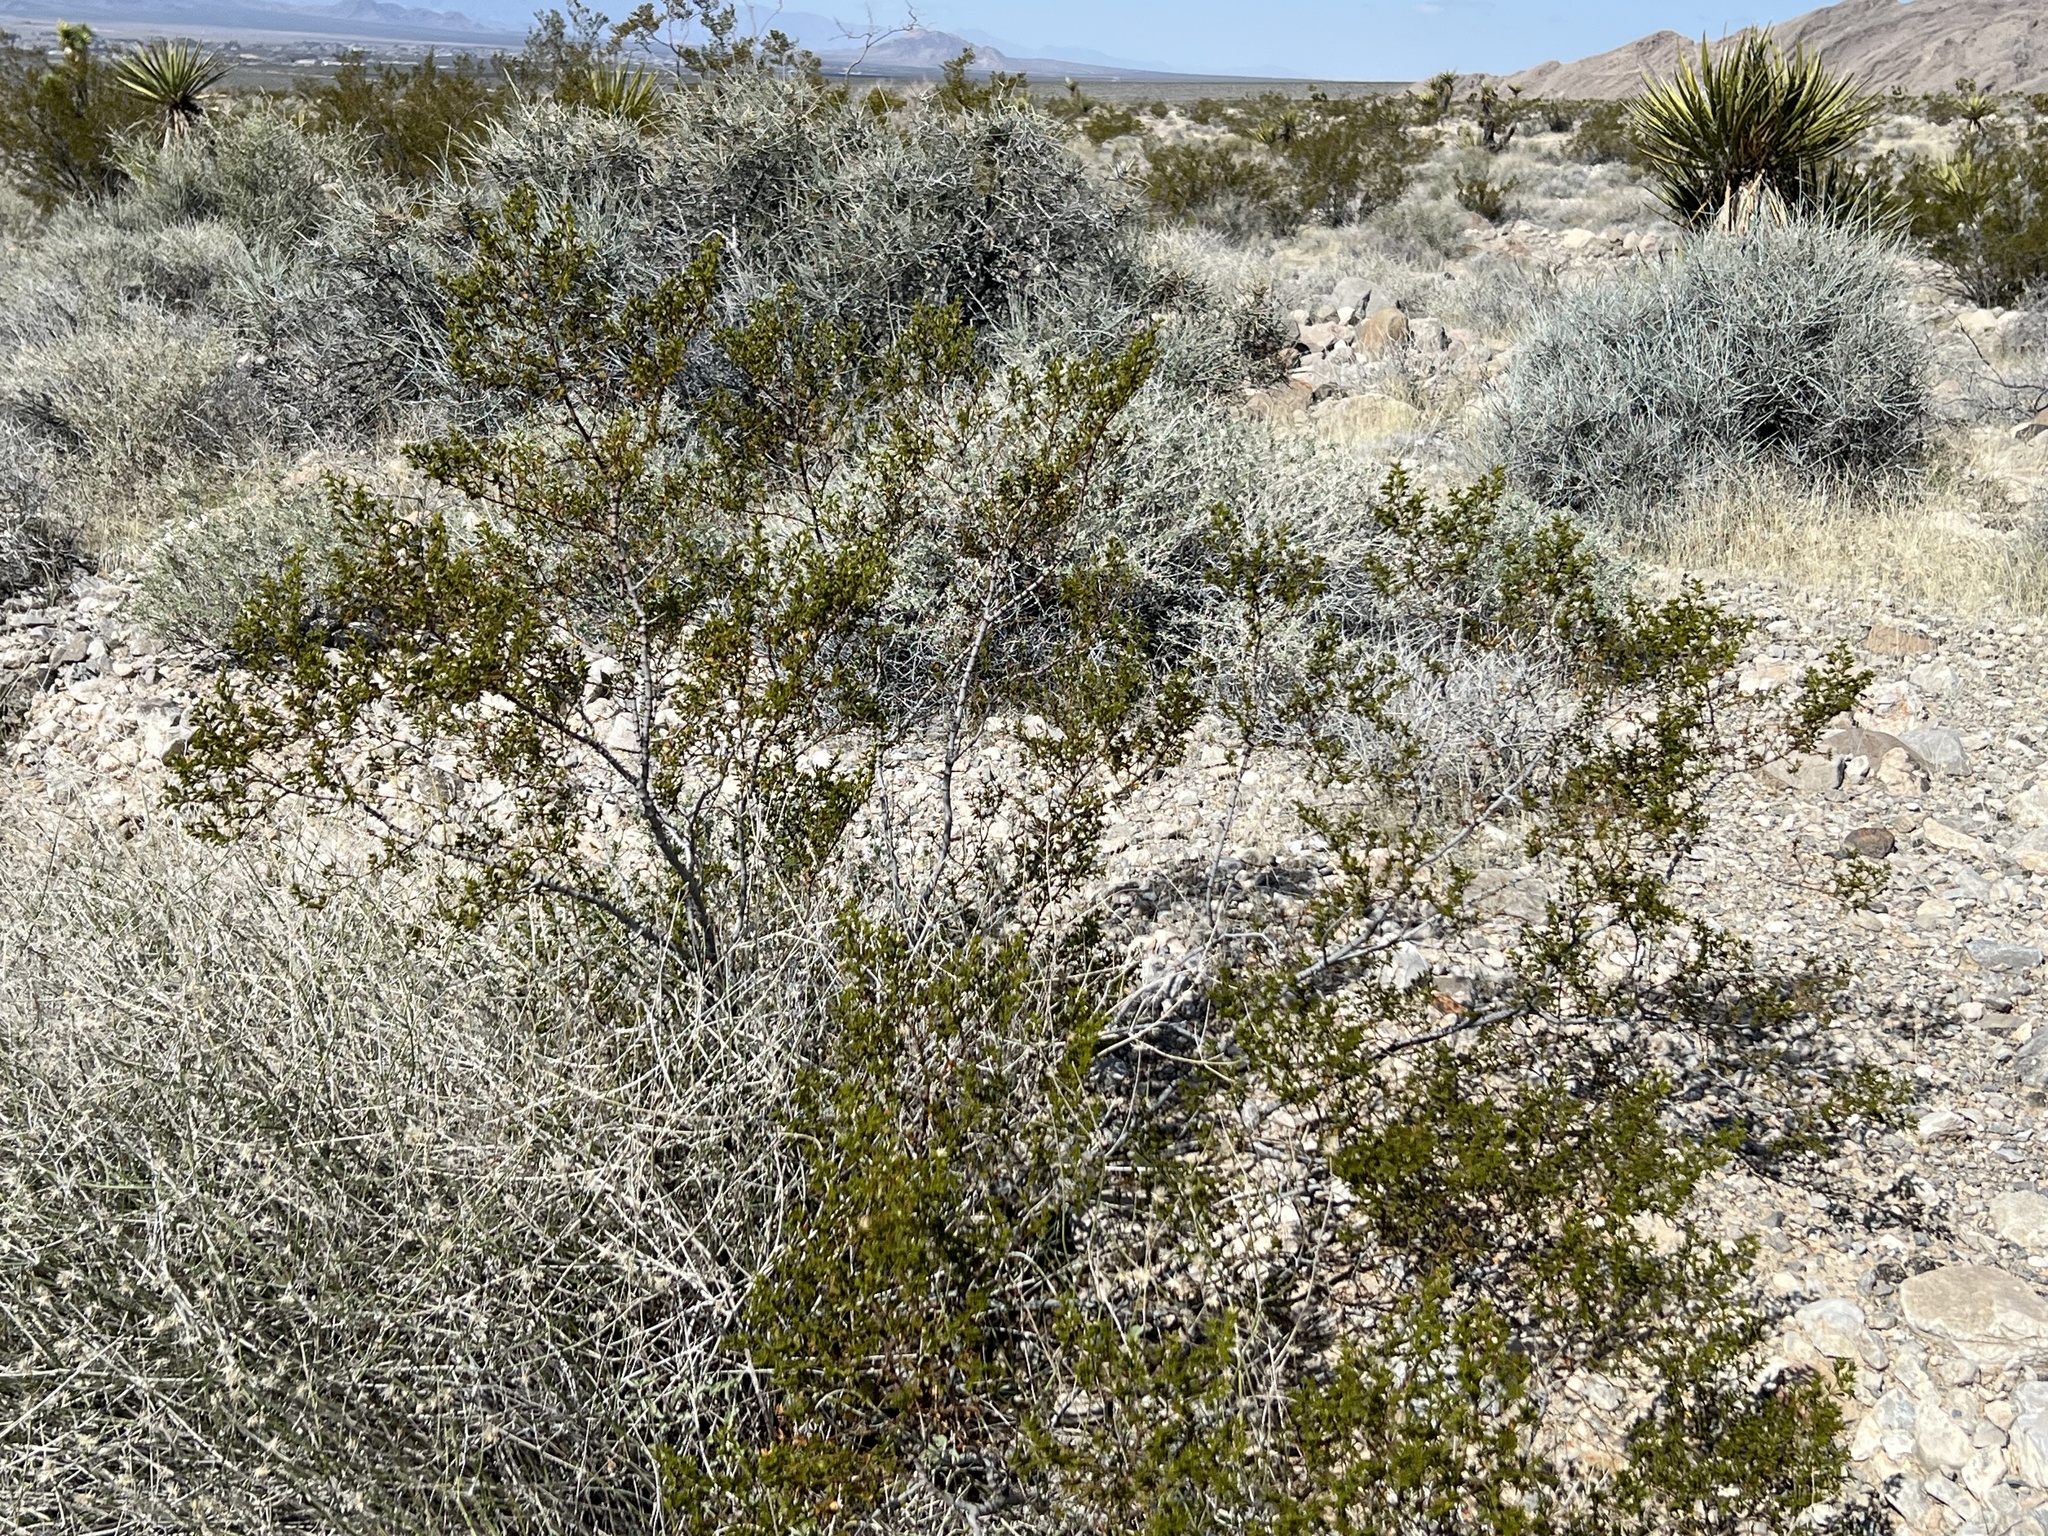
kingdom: Plantae
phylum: Tracheophyta
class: Magnoliopsida
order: Zygophyllales
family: Zygophyllaceae
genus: Larrea
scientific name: Larrea tridentata
